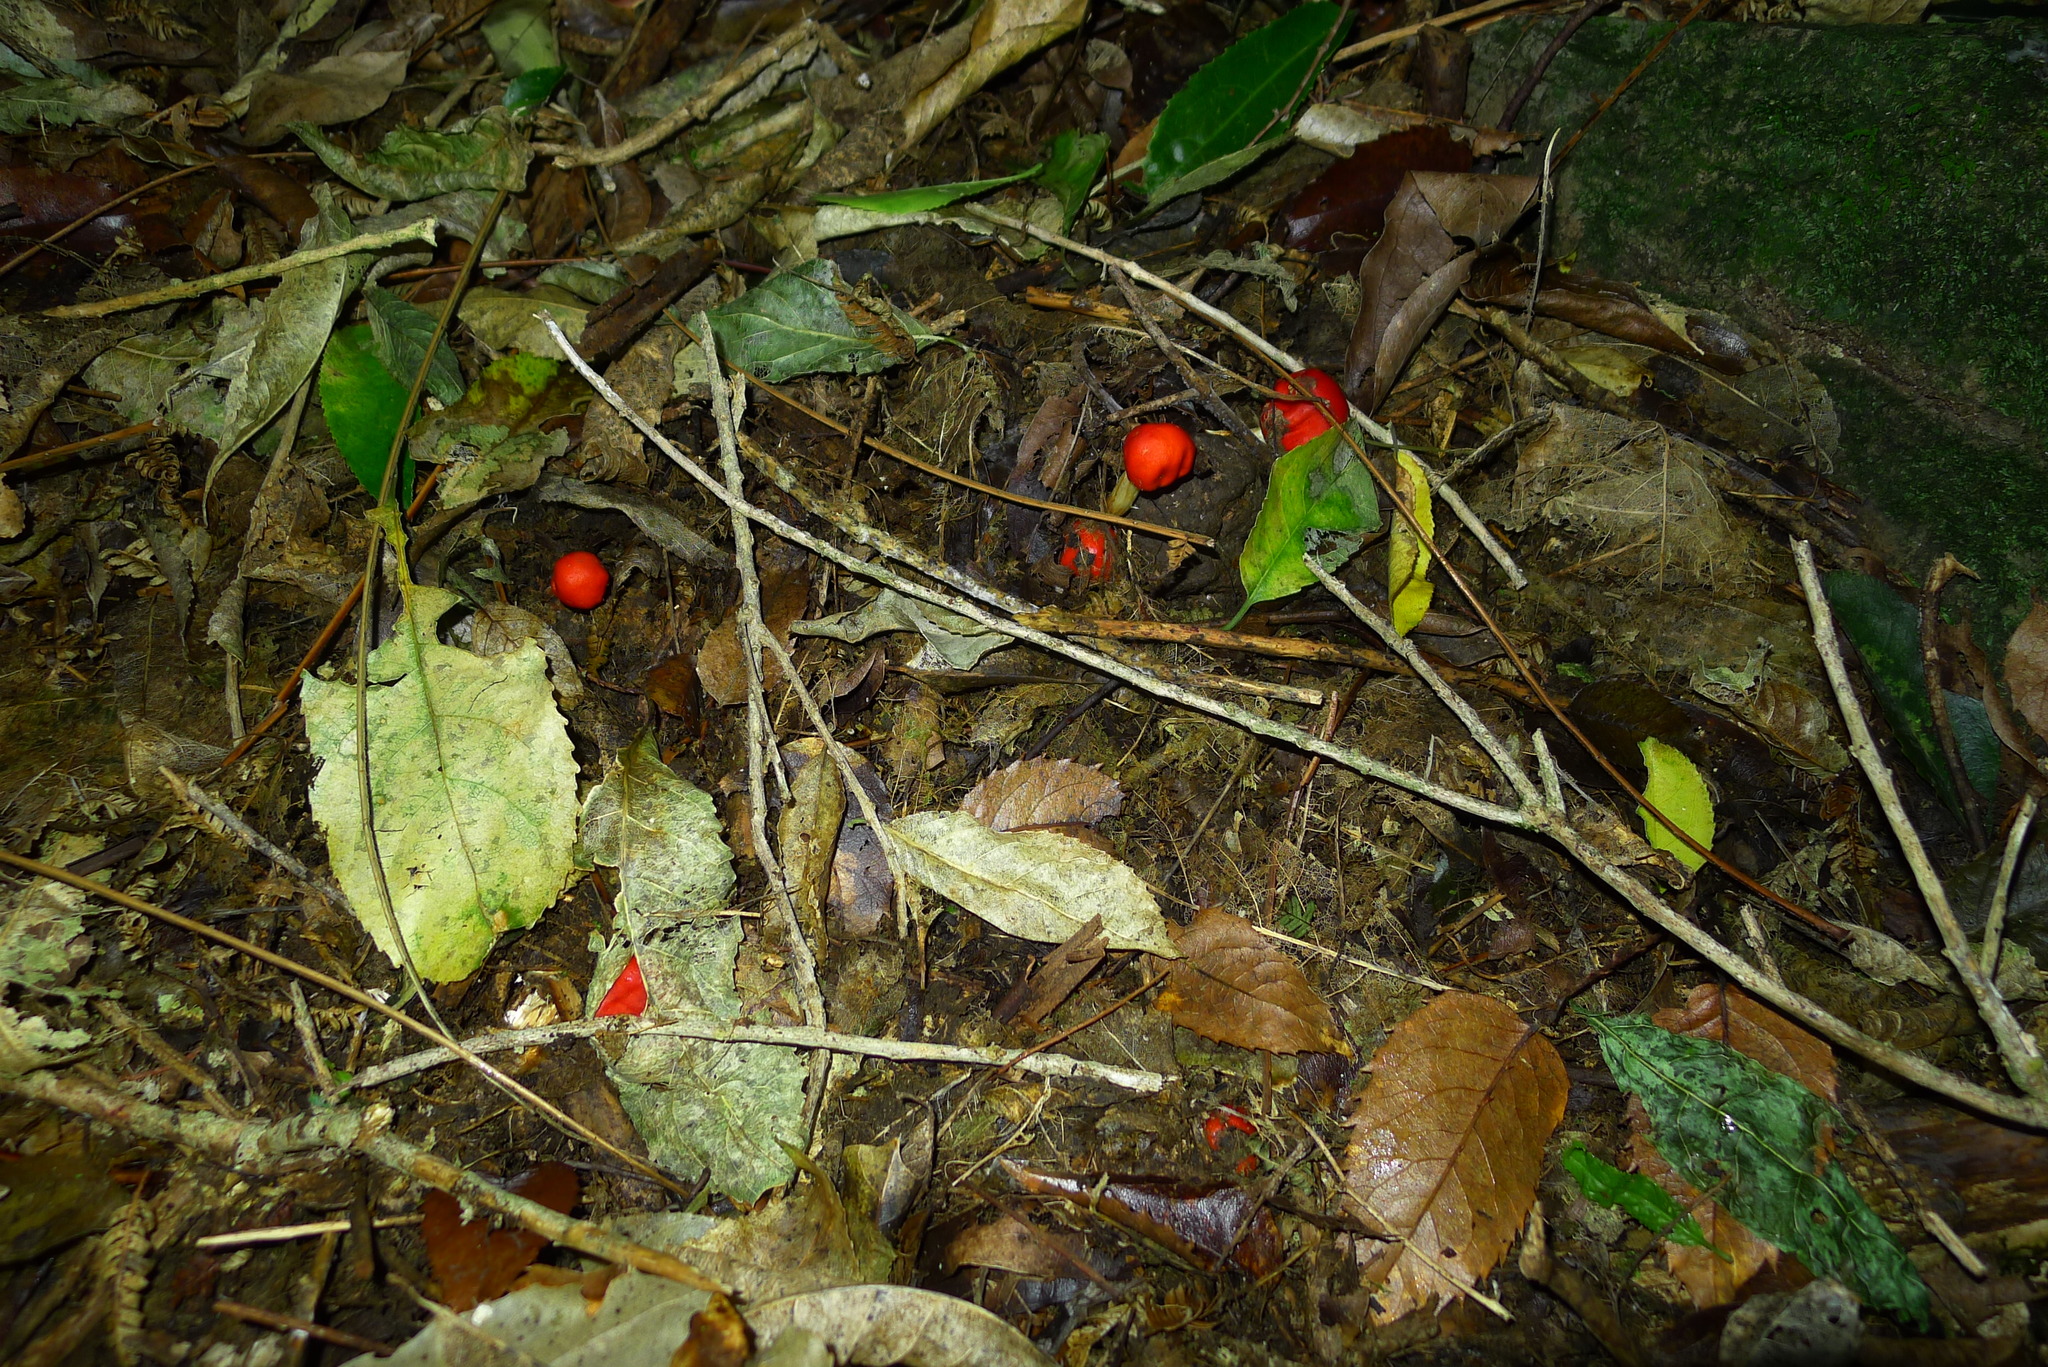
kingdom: Fungi
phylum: Basidiomycota
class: Agaricomycetes
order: Agaricales
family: Strophariaceae
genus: Leratiomyces
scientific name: Leratiomyces erythrocephalus
